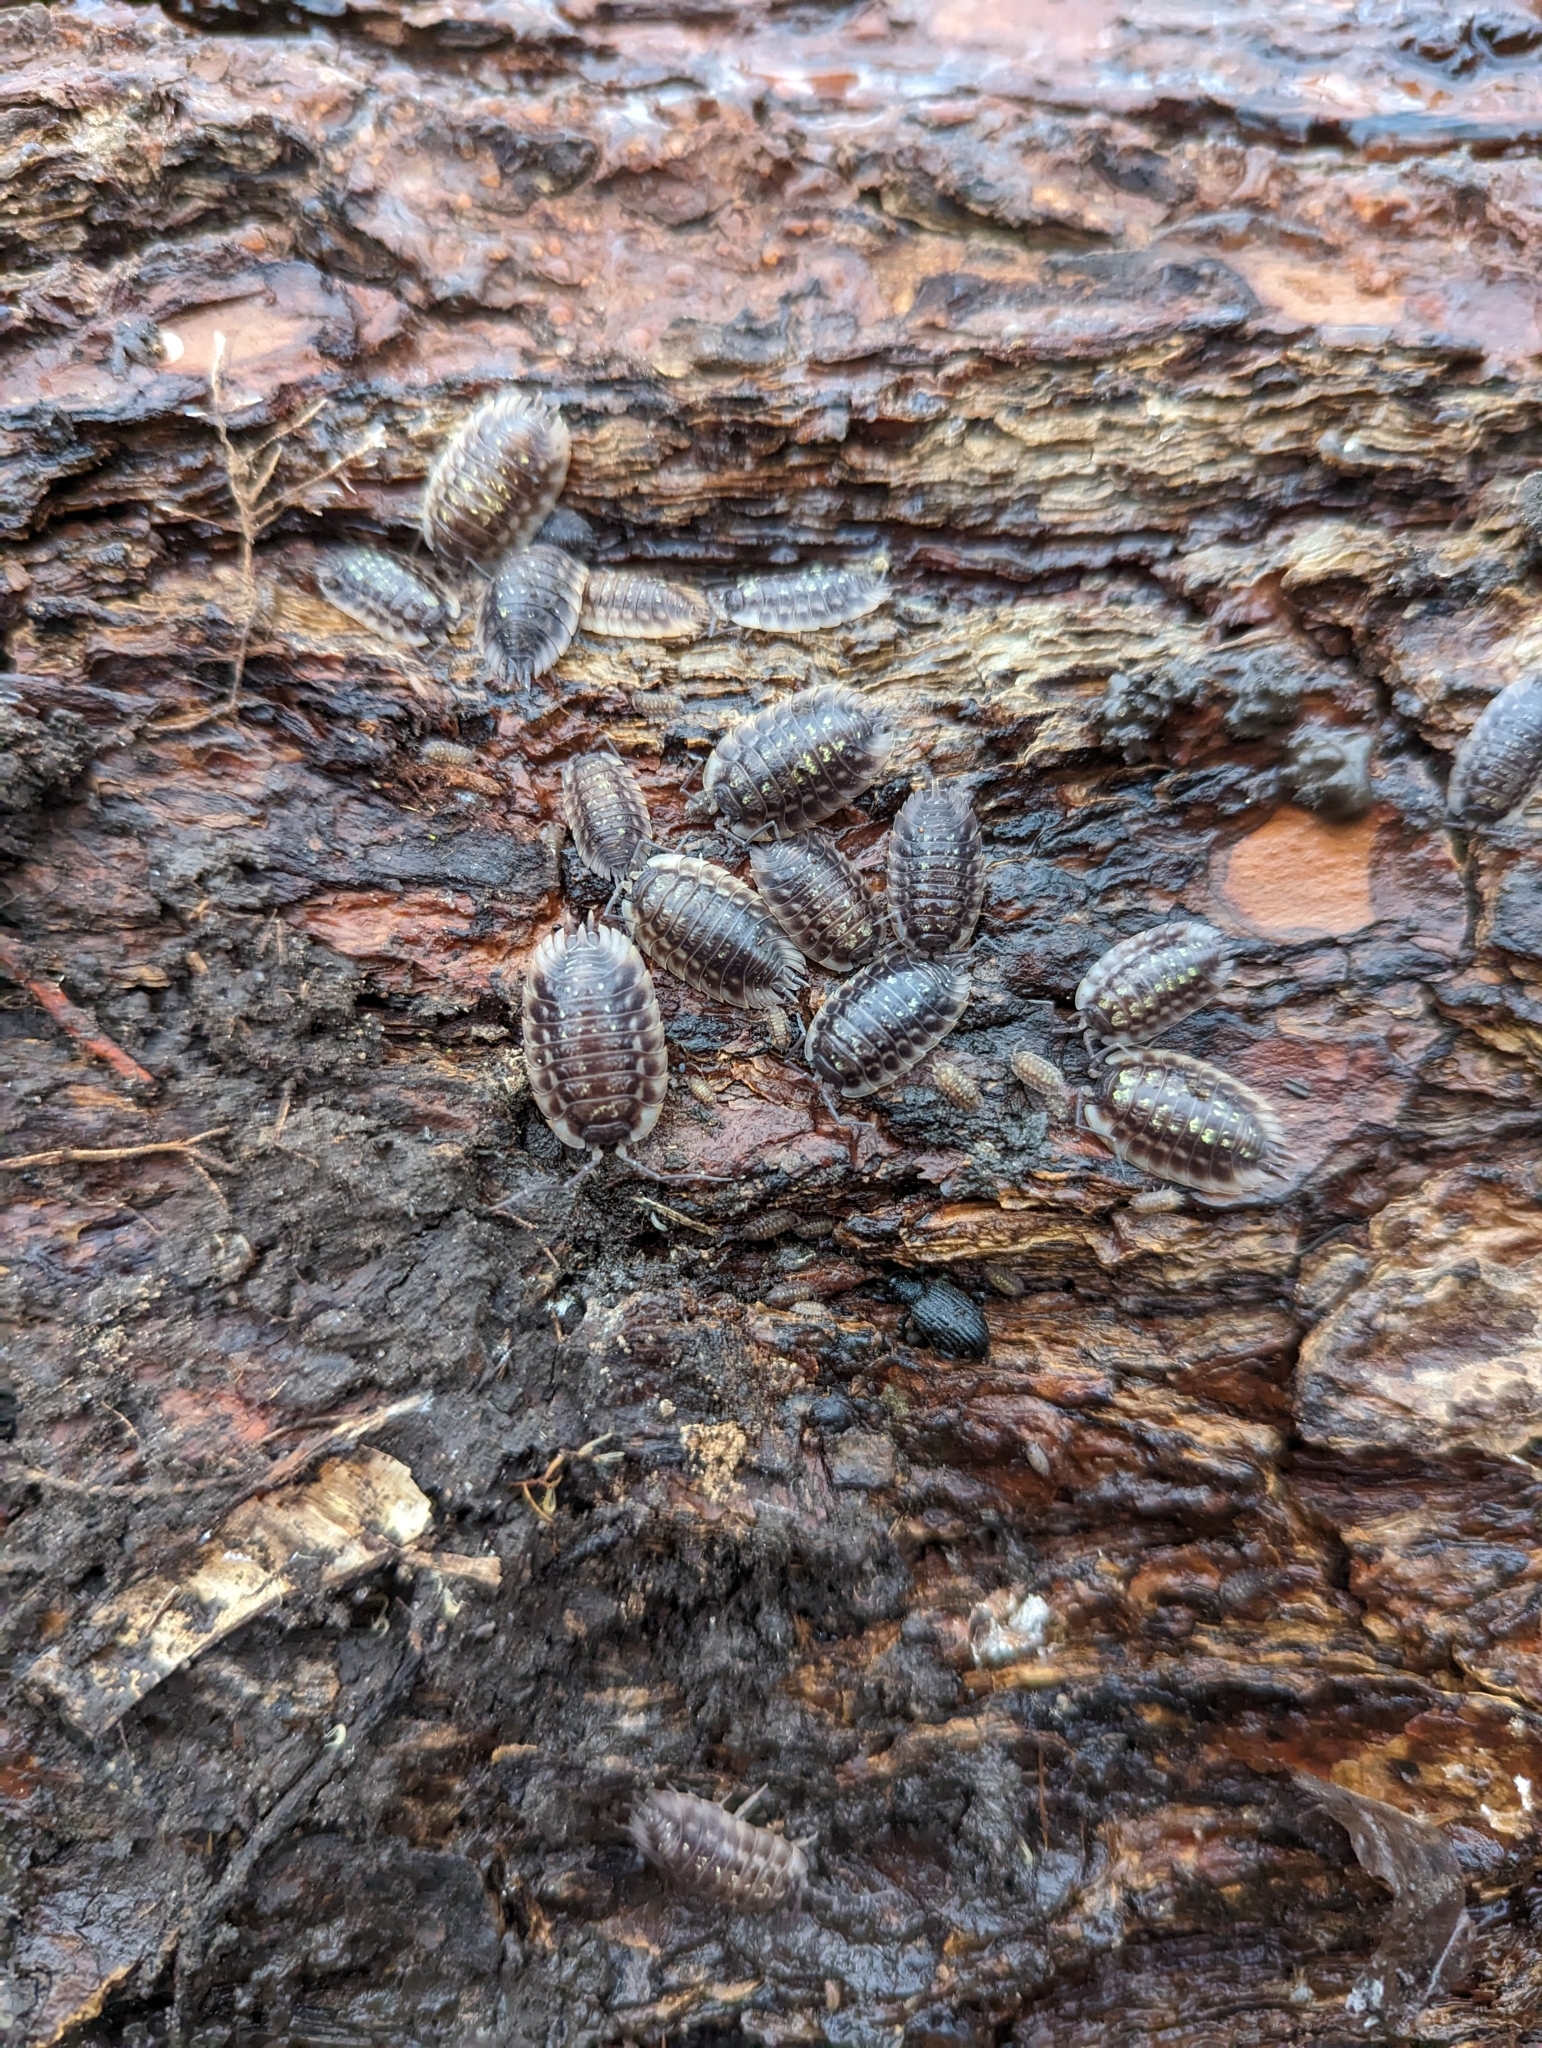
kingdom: Animalia
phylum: Arthropoda
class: Malacostraca
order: Isopoda
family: Oniscidae
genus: Oniscus
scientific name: Oniscus asellus
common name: Common shiny woodlouse
